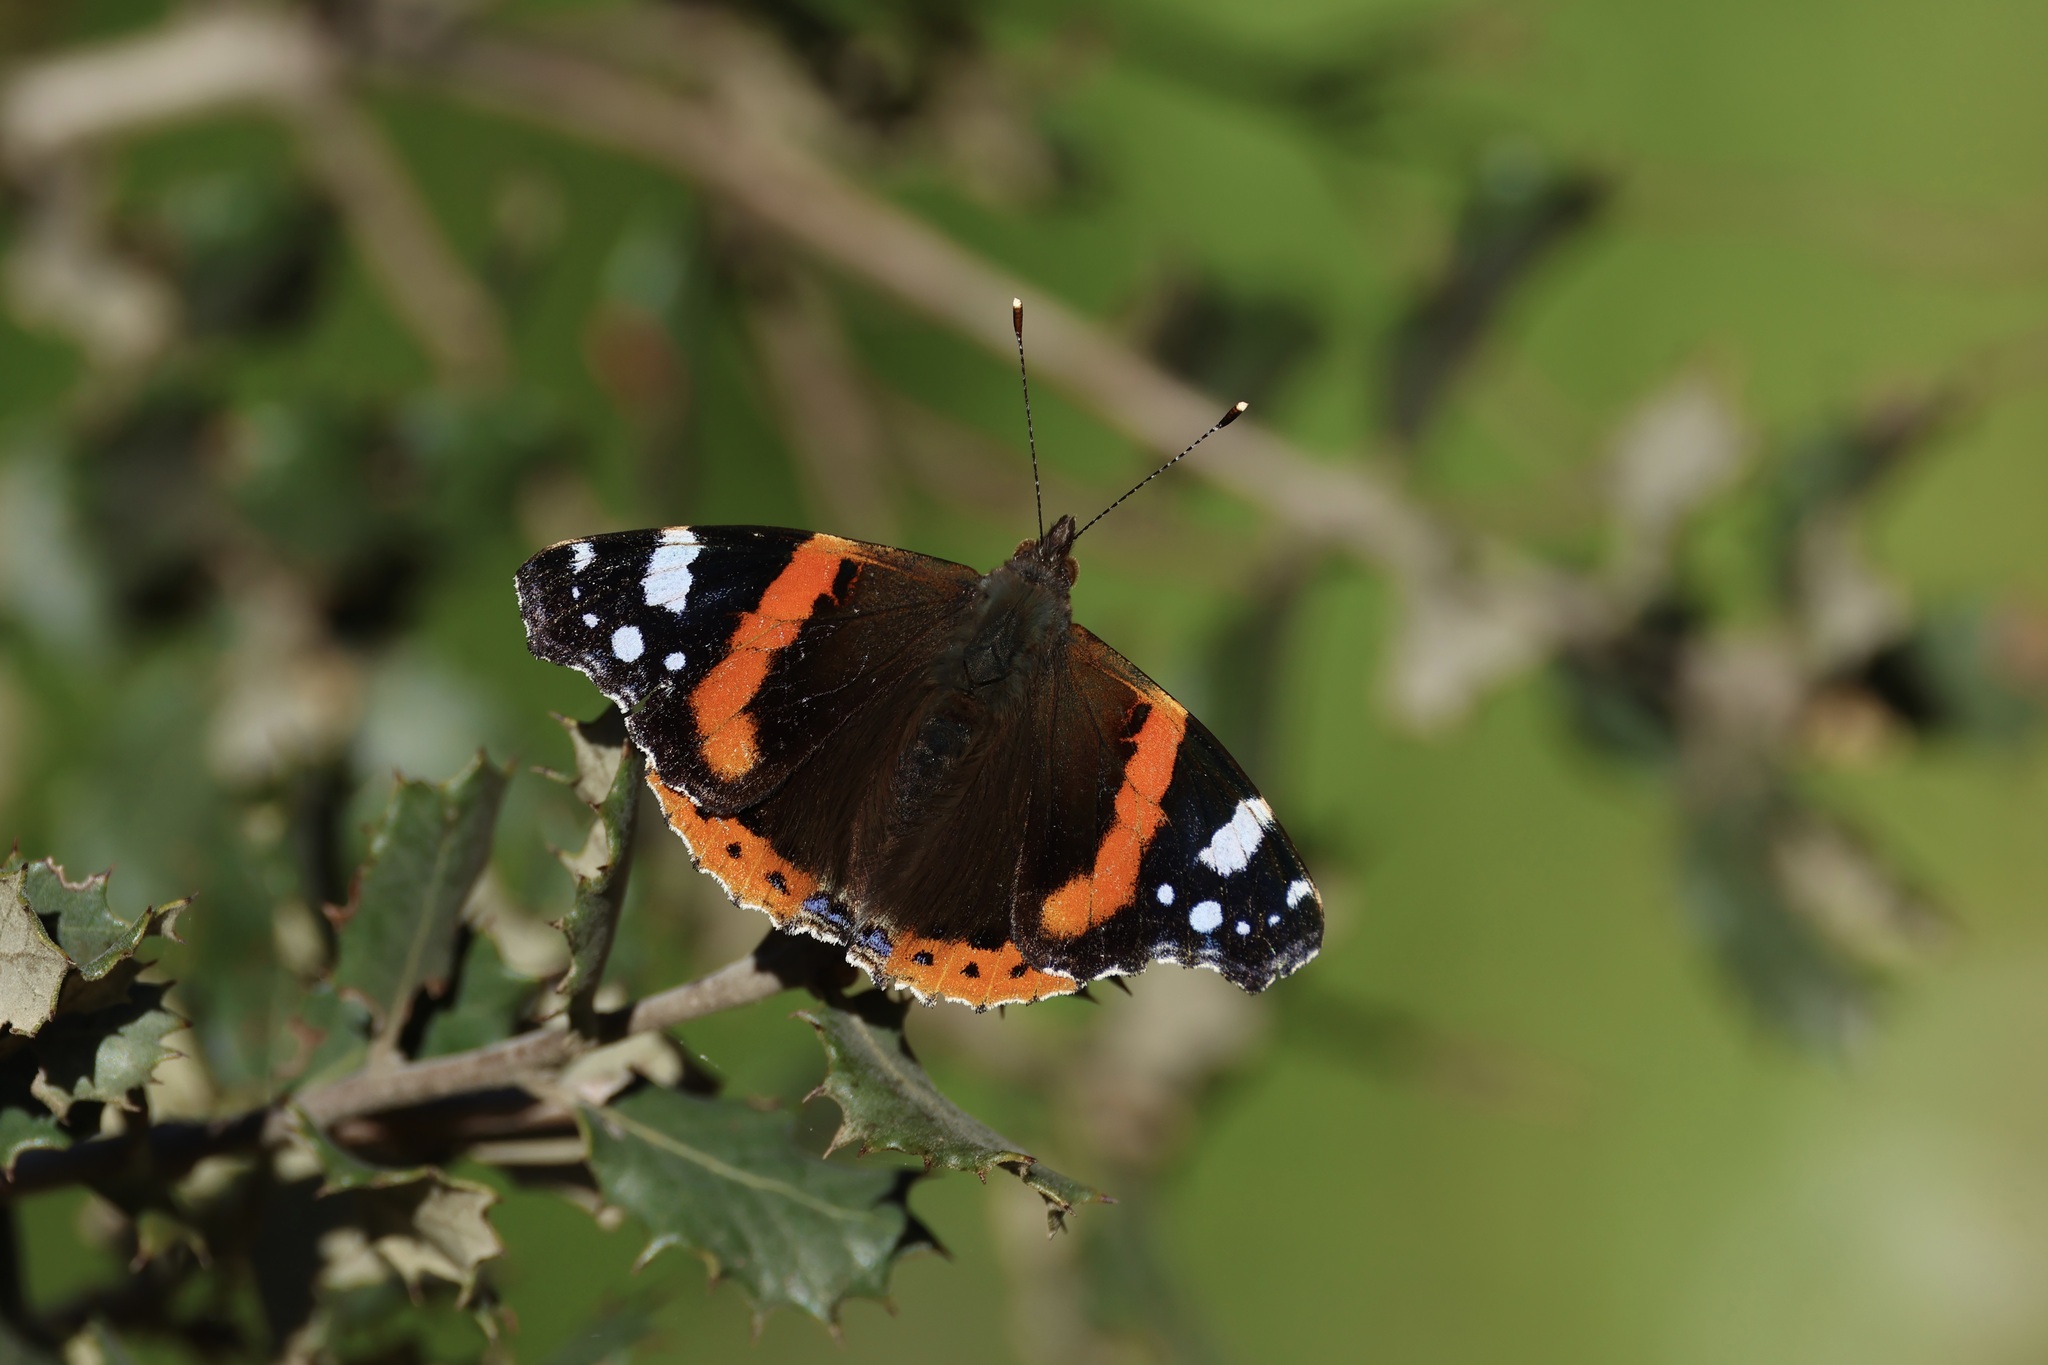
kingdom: Animalia
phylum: Arthropoda
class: Insecta
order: Lepidoptera
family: Nymphalidae
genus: Vanessa
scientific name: Vanessa atalanta
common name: Red admiral
